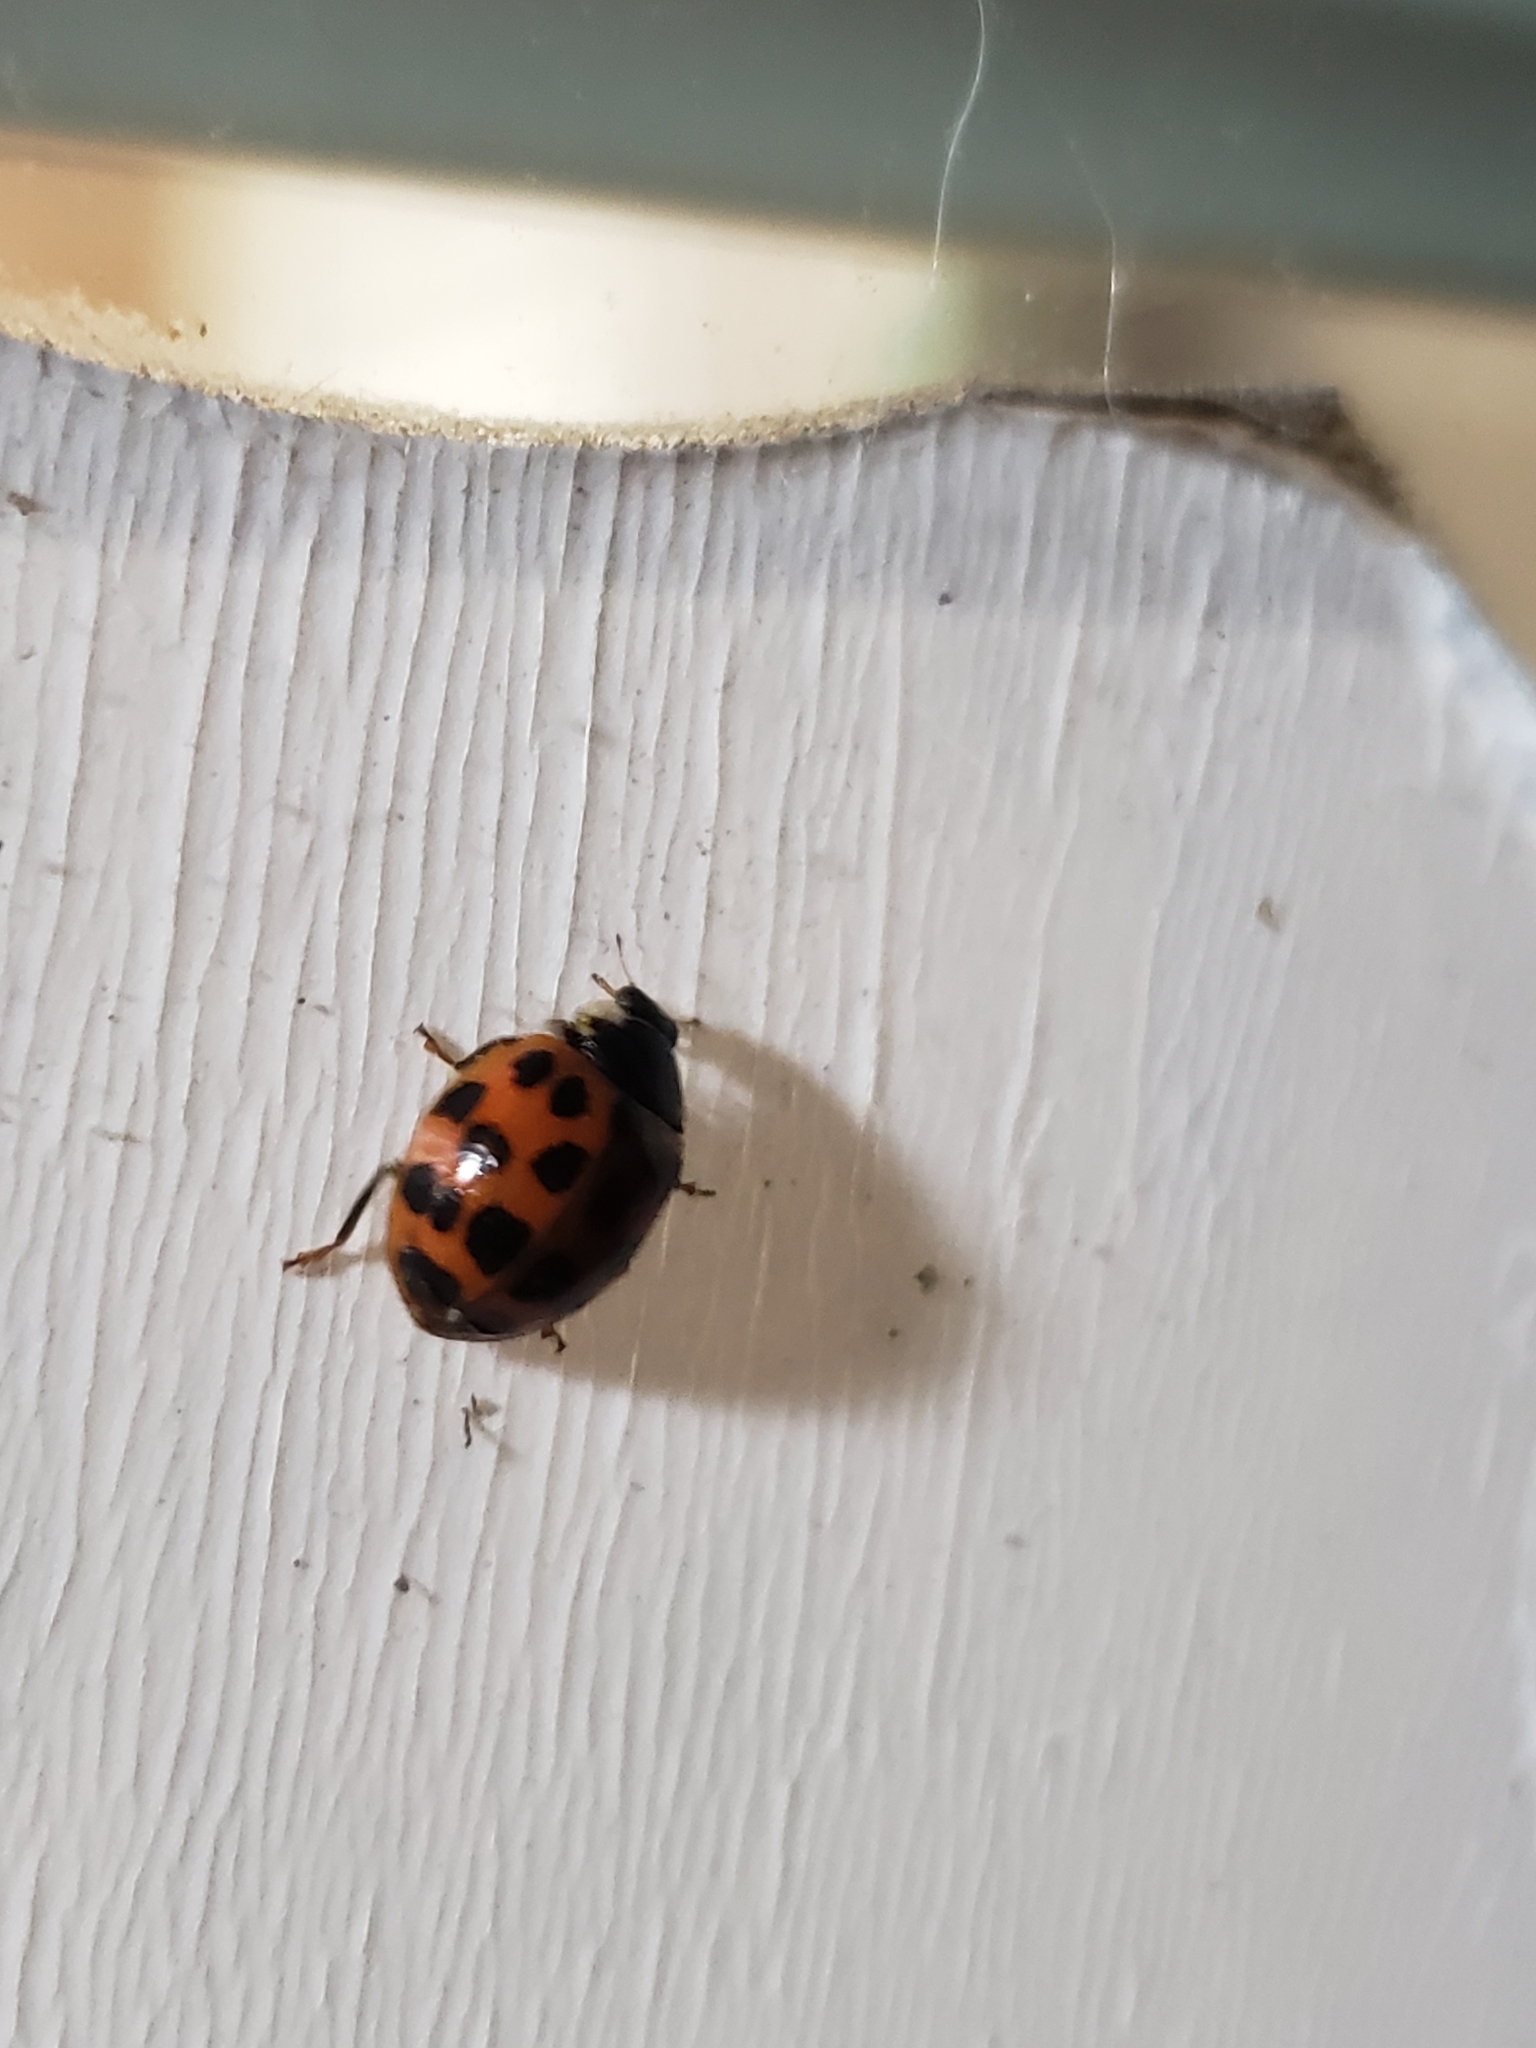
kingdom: Animalia
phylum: Arthropoda
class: Insecta
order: Coleoptera
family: Coccinellidae
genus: Harmonia
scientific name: Harmonia axyridis
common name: Harlequin ladybird
